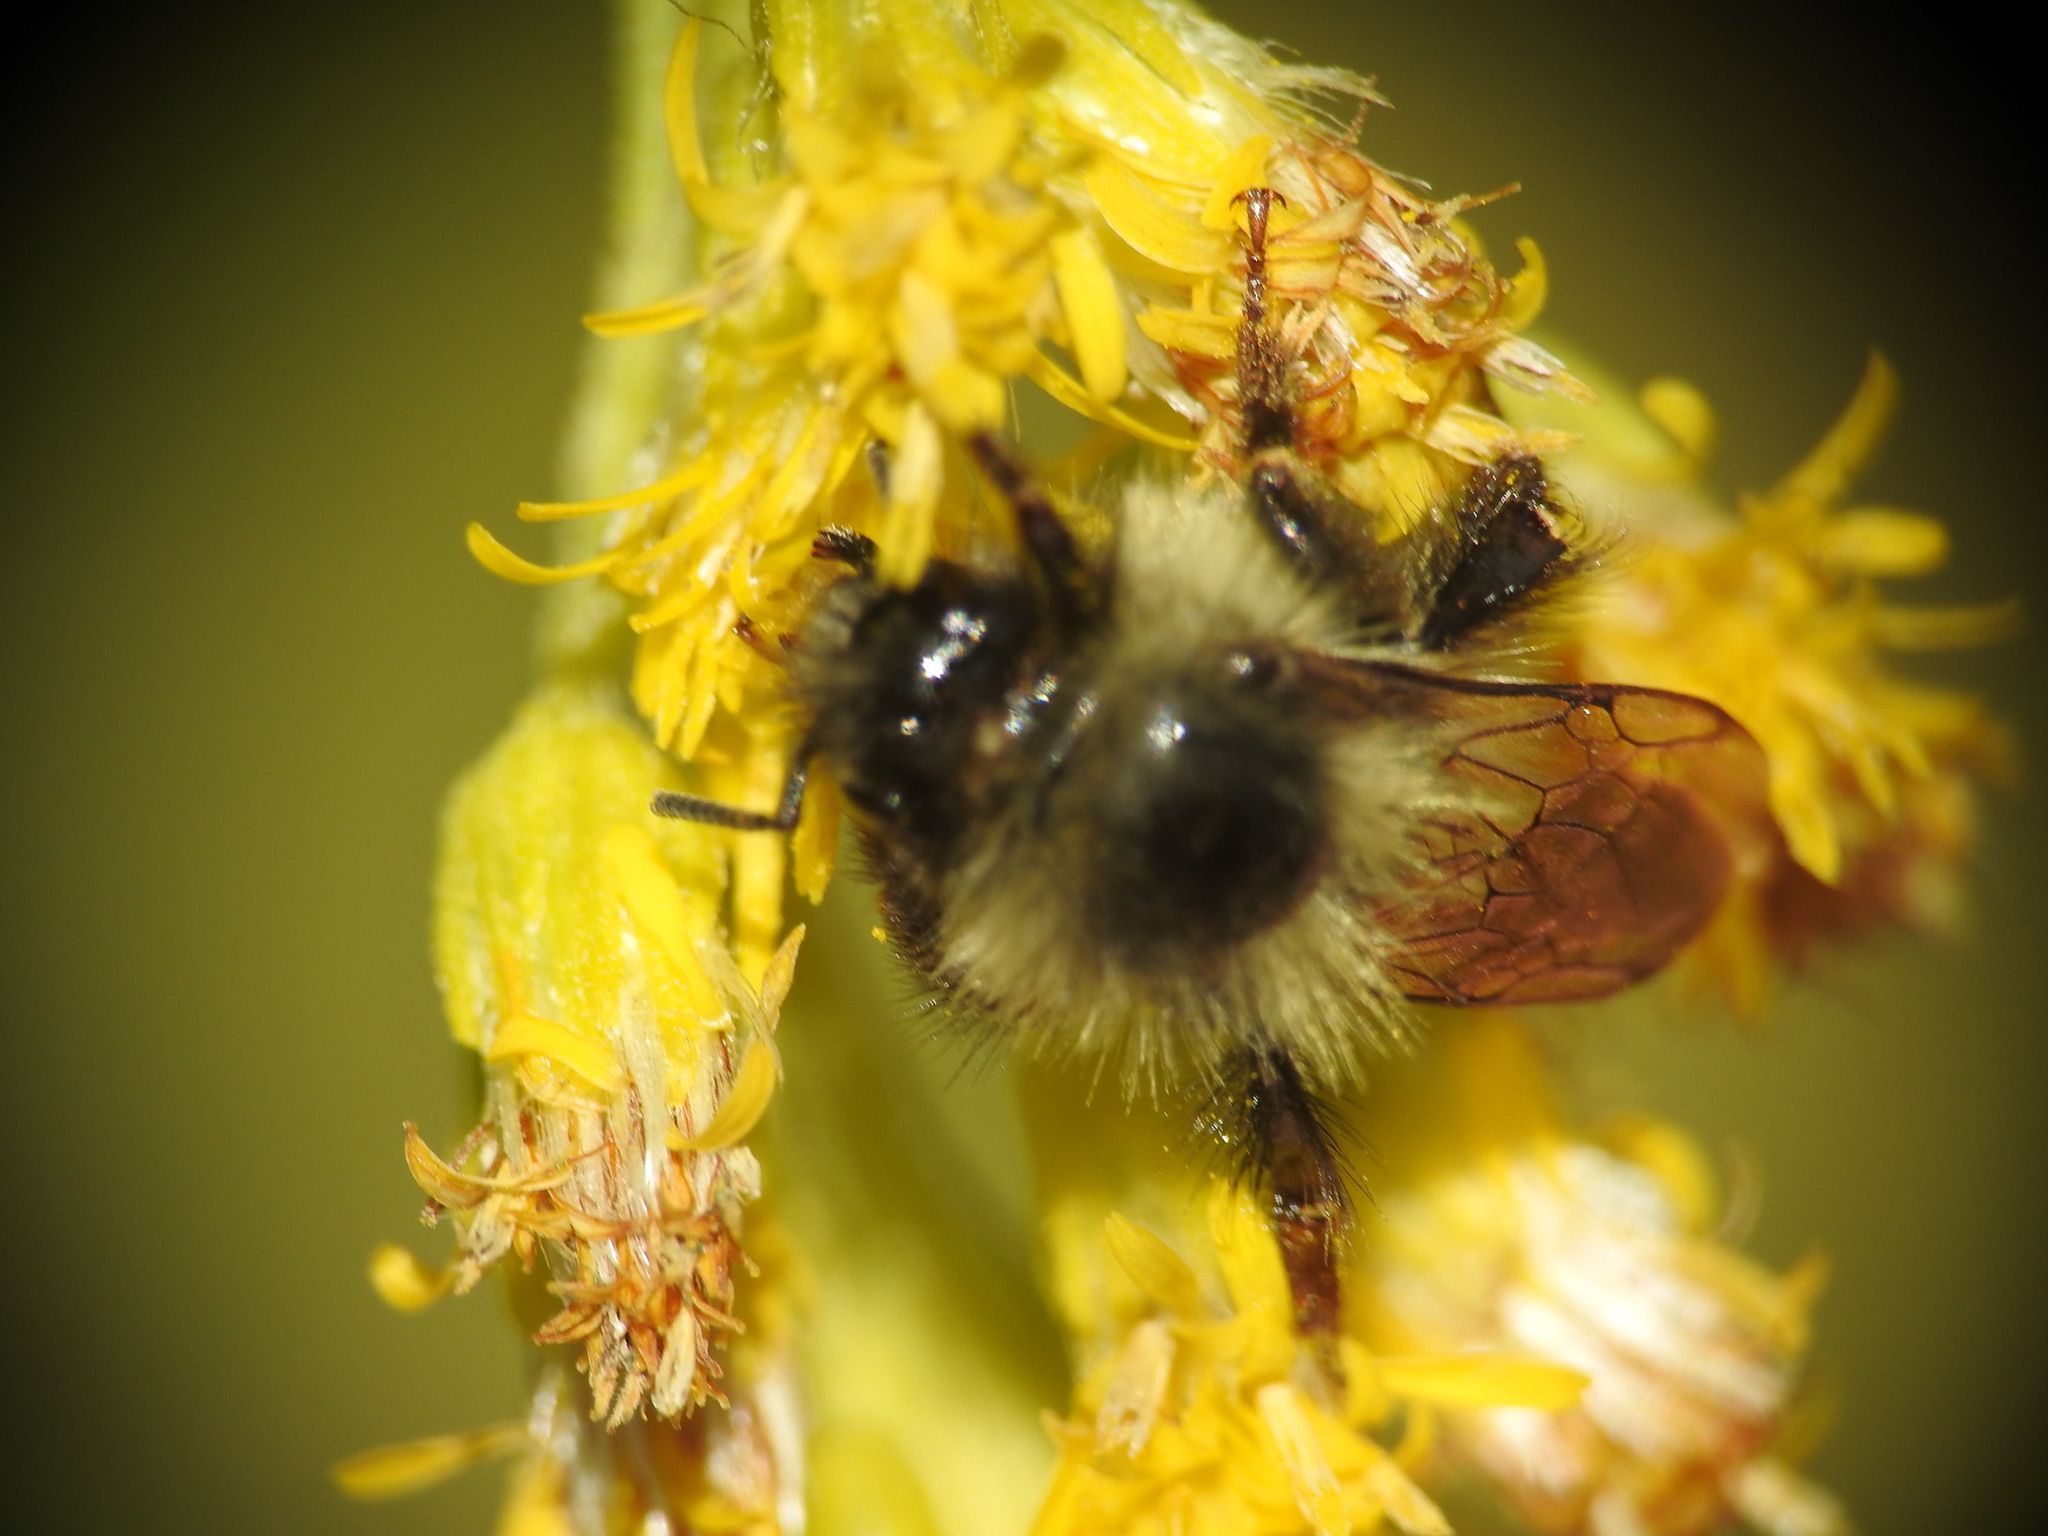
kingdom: Animalia
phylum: Arthropoda
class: Insecta
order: Hymenoptera
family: Apidae
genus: Bombus
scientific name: Bombus mixtus
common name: Fuzzy-horned bumble bee
